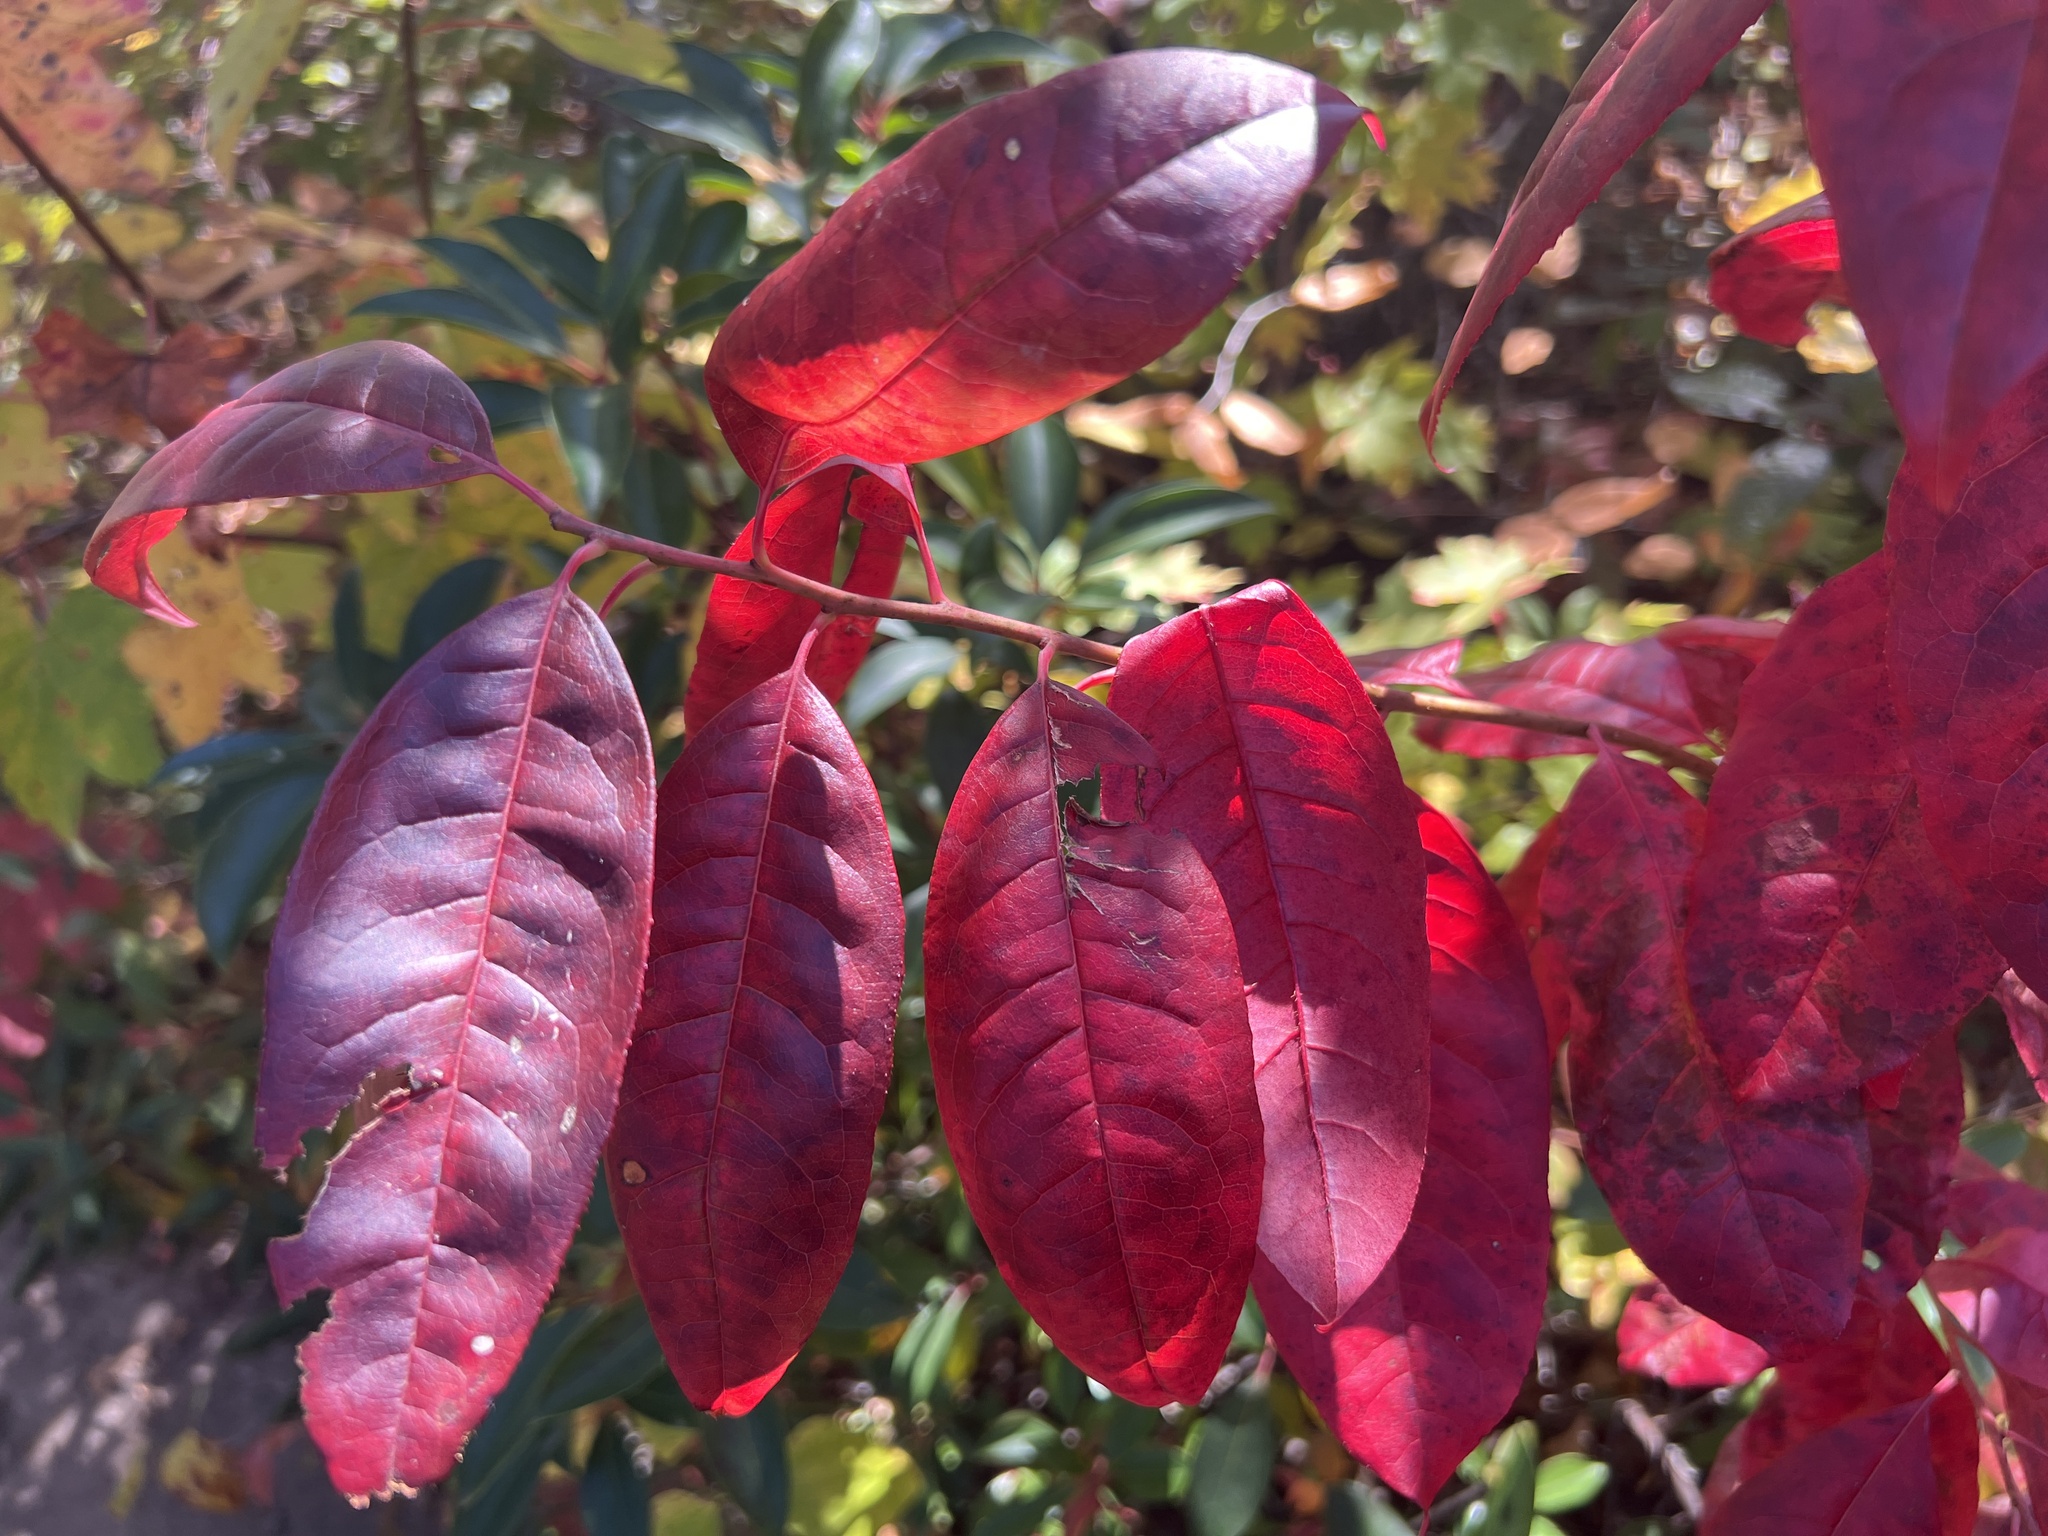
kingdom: Plantae
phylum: Tracheophyta
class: Magnoliopsida
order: Ericales
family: Ericaceae
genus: Oxydendrum
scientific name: Oxydendrum arboreum
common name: Sourwood
